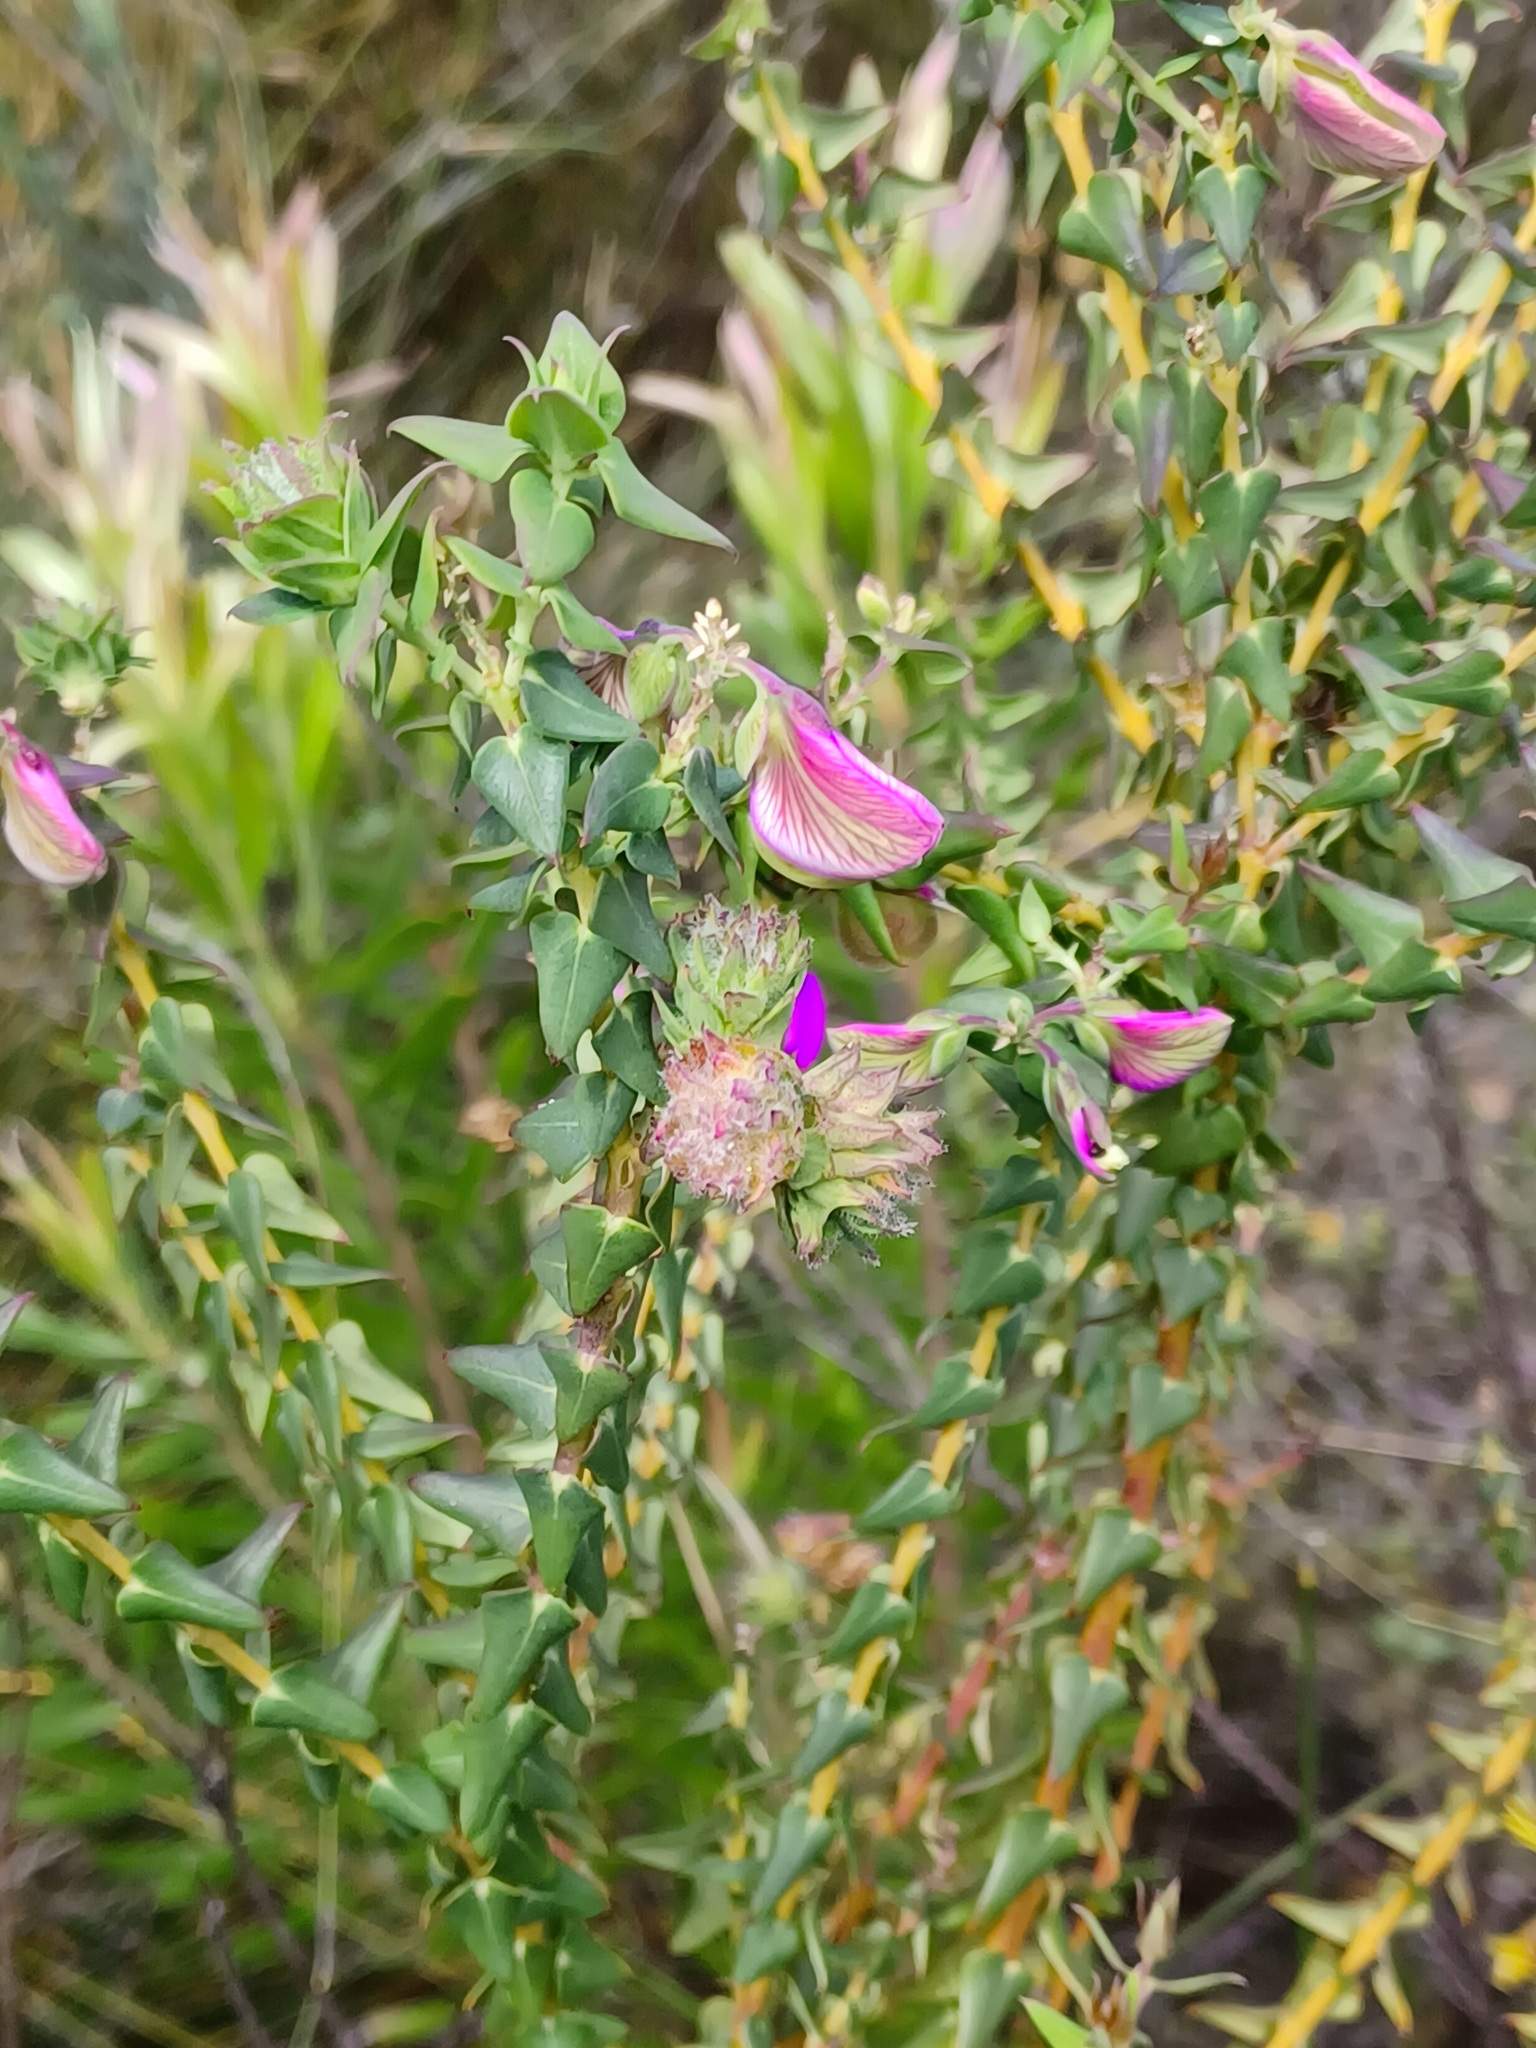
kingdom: Plantae
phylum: Tracheophyta
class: Magnoliopsida
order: Fabales
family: Polygalaceae
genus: Polygala
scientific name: Polygala fruticosa
